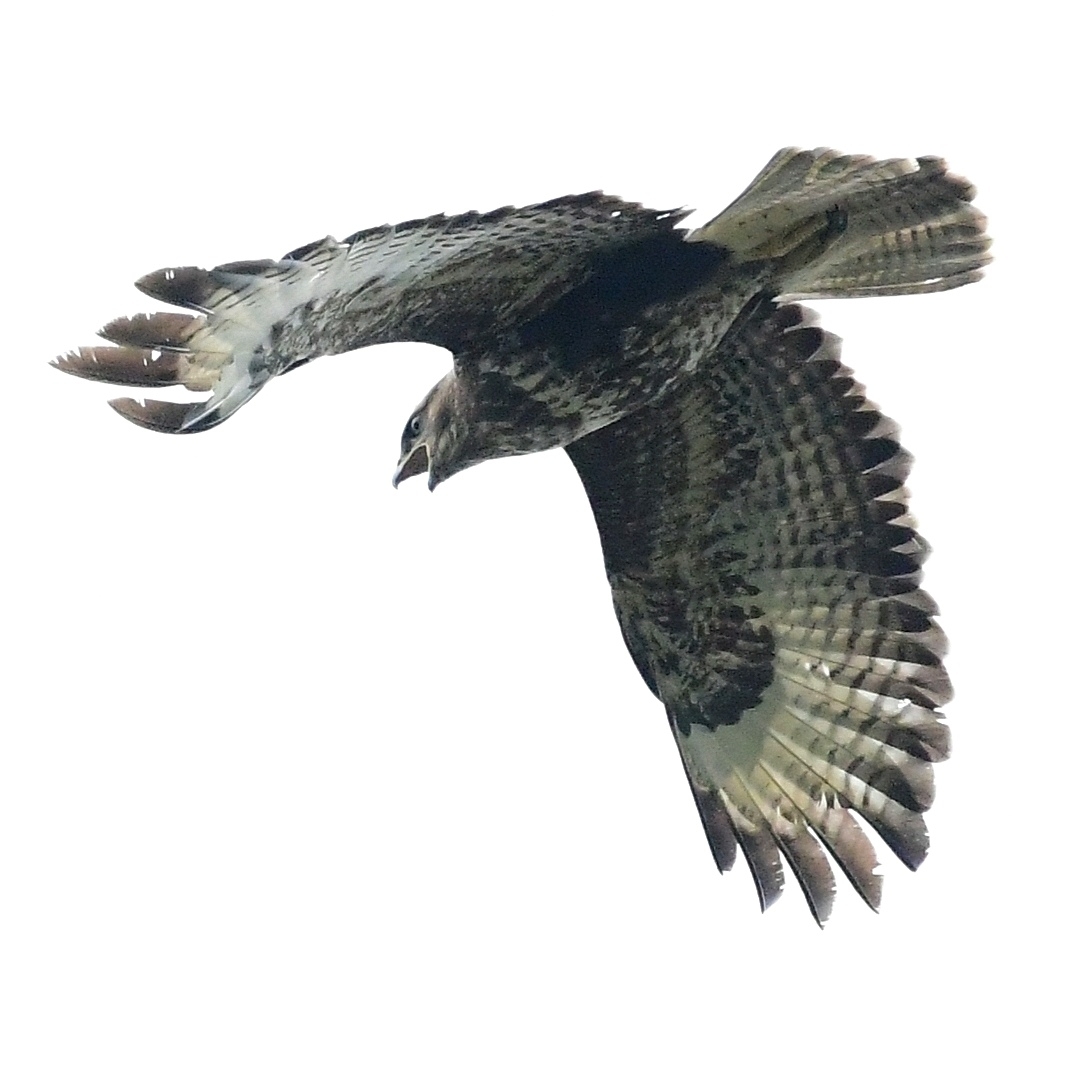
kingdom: Animalia
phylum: Chordata
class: Aves
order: Accipitriformes
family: Accipitridae
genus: Buteo
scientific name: Buteo buteo
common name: Common buzzard
